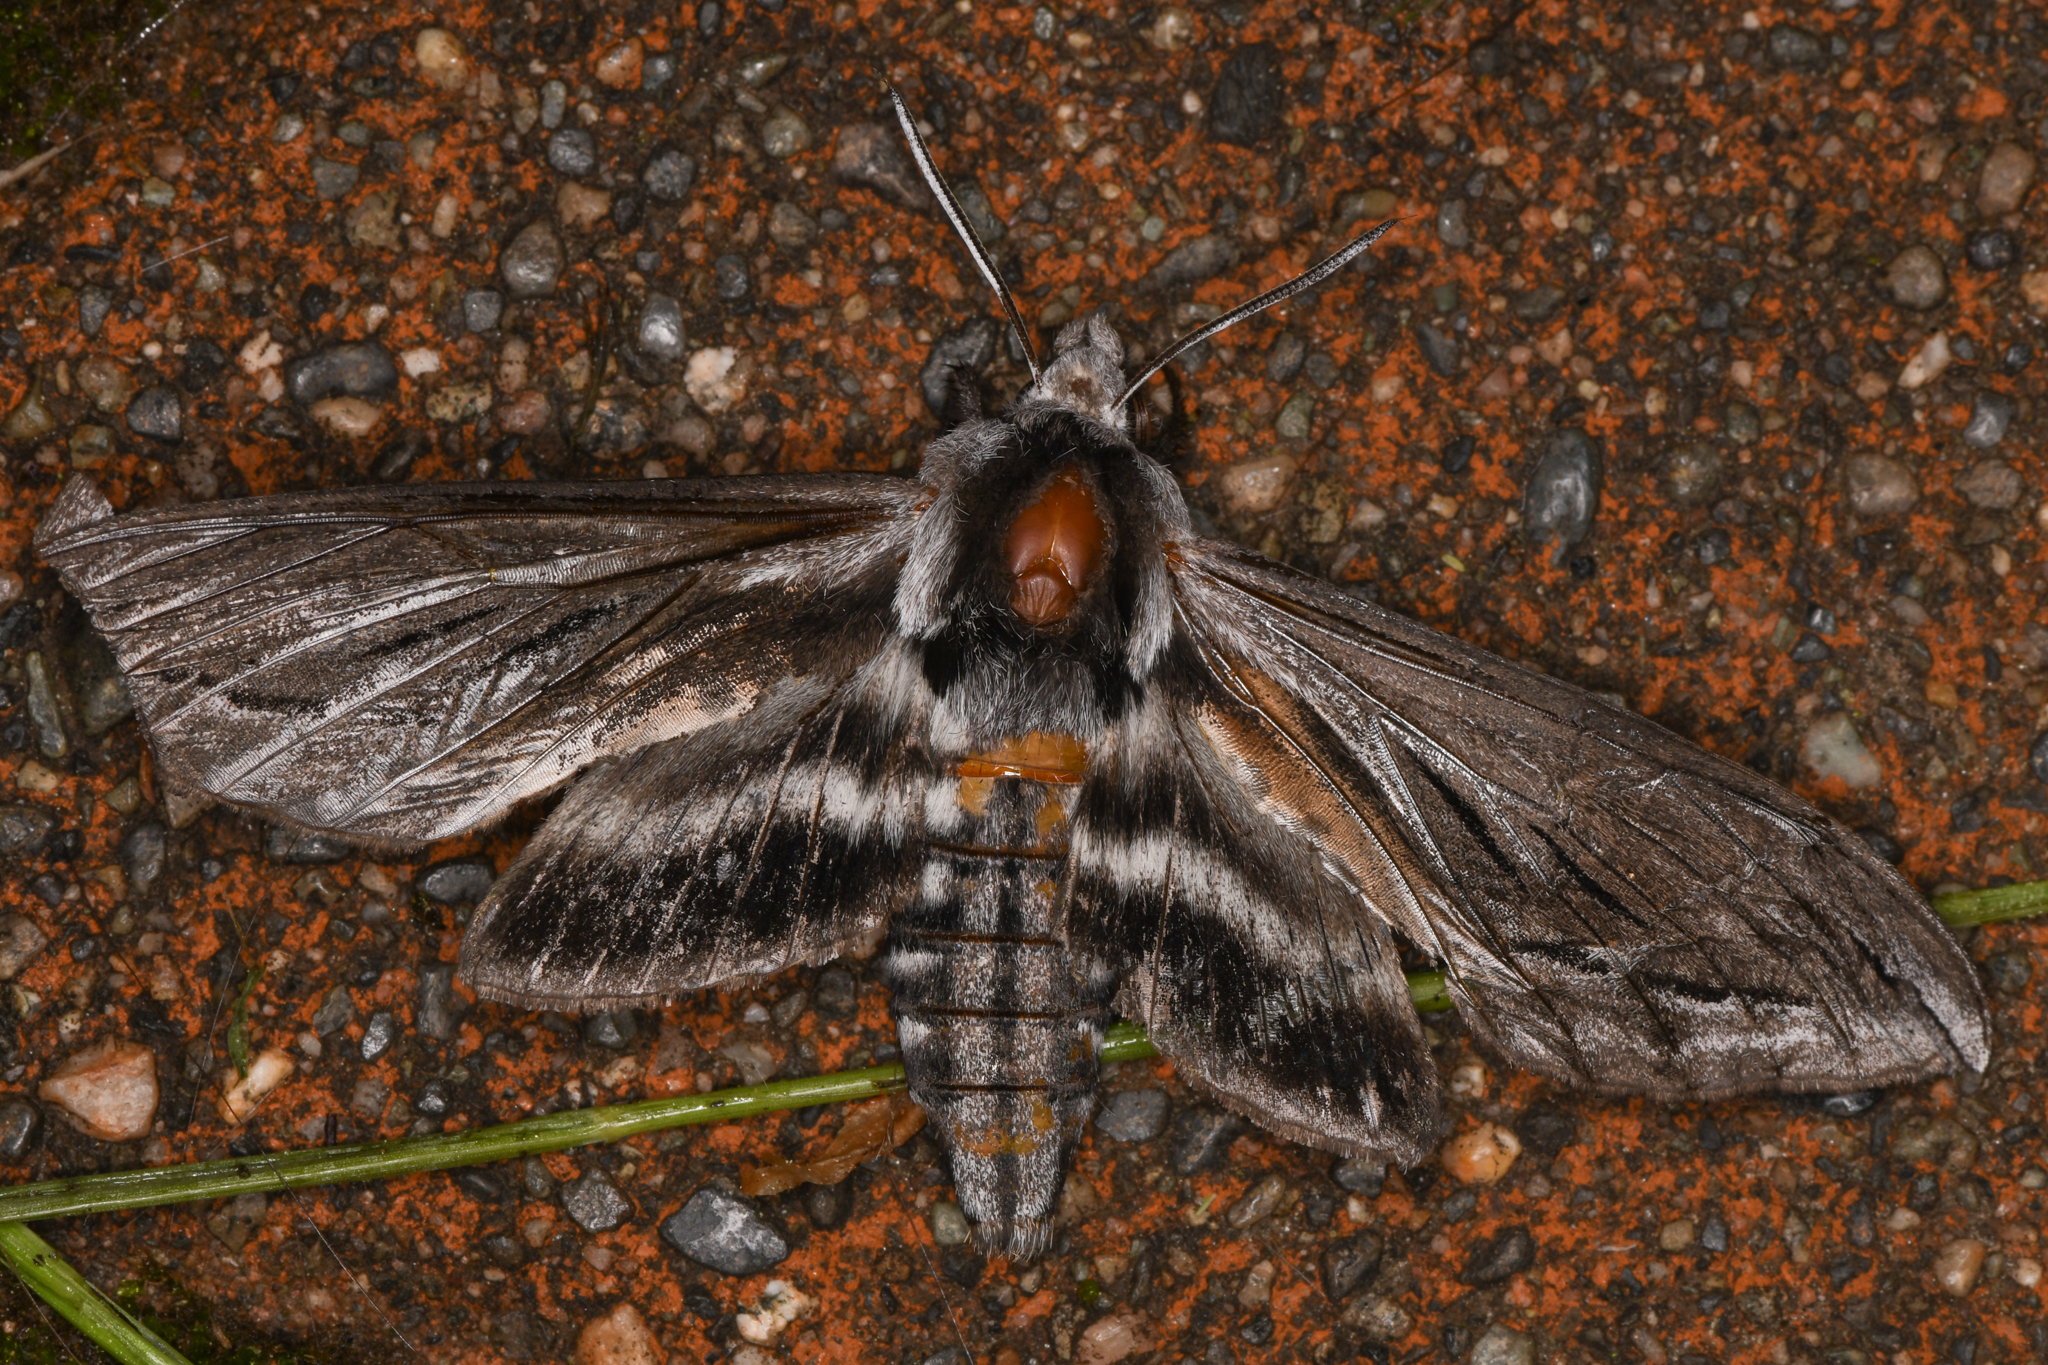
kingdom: Animalia
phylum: Arthropoda
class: Insecta
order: Lepidoptera
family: Sphingidae
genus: Sphinx
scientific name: Sphinx vashti
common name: Snowberry sphinx
